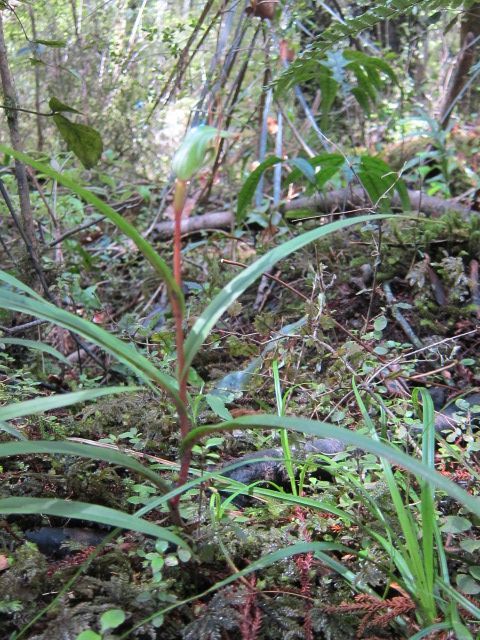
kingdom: Plantae
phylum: Tracheophyta
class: Liliopsida
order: Asparagales
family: Orchidaceae
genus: Pterostylis
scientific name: Pterostylis banksii
